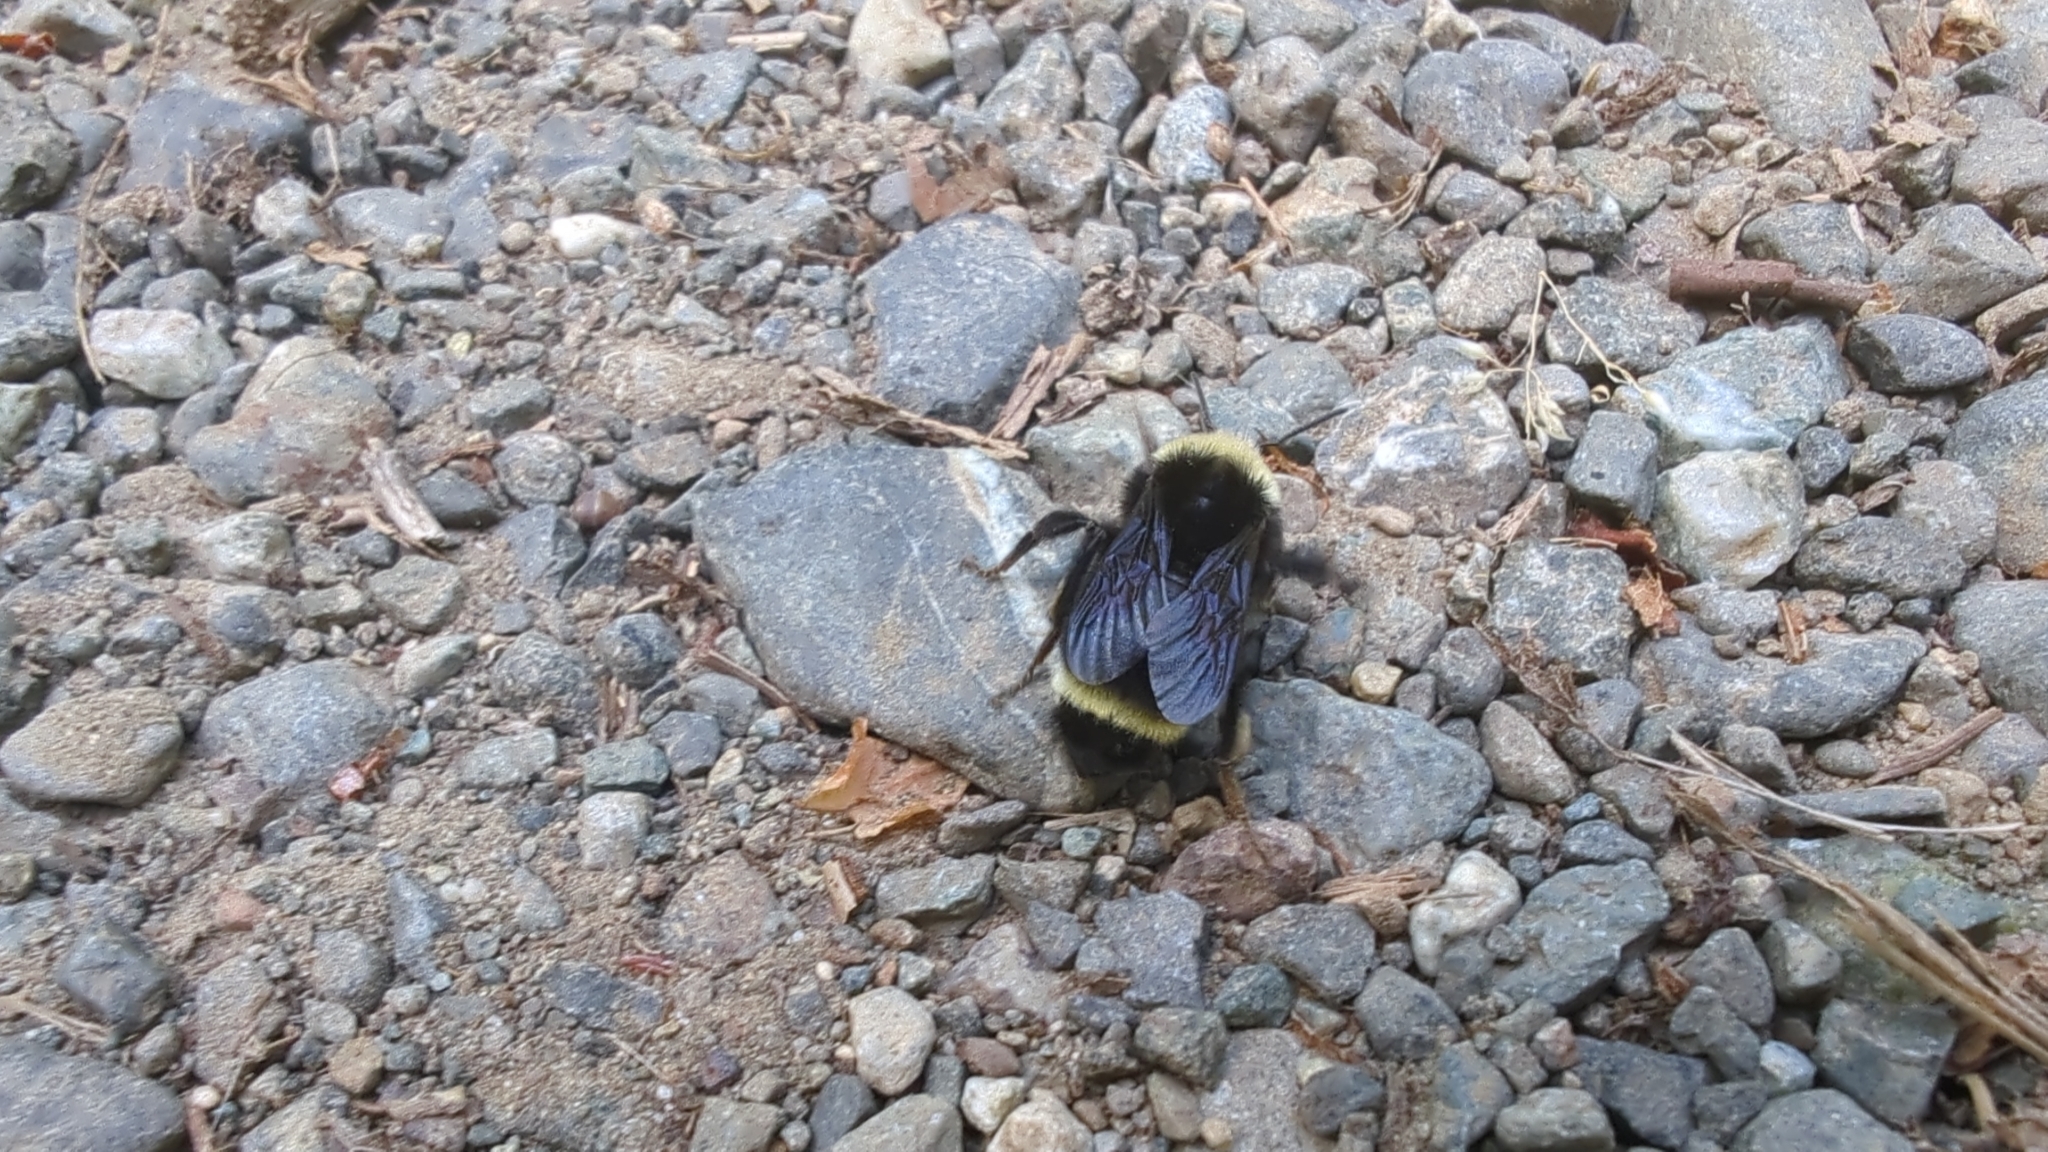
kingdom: Animalia
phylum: Arthropoda
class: Insecta
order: Hymenoptera
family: Apidae
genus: Bombus
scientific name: Bombus vosnesenskii
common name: Vosnesensky bumble bee
